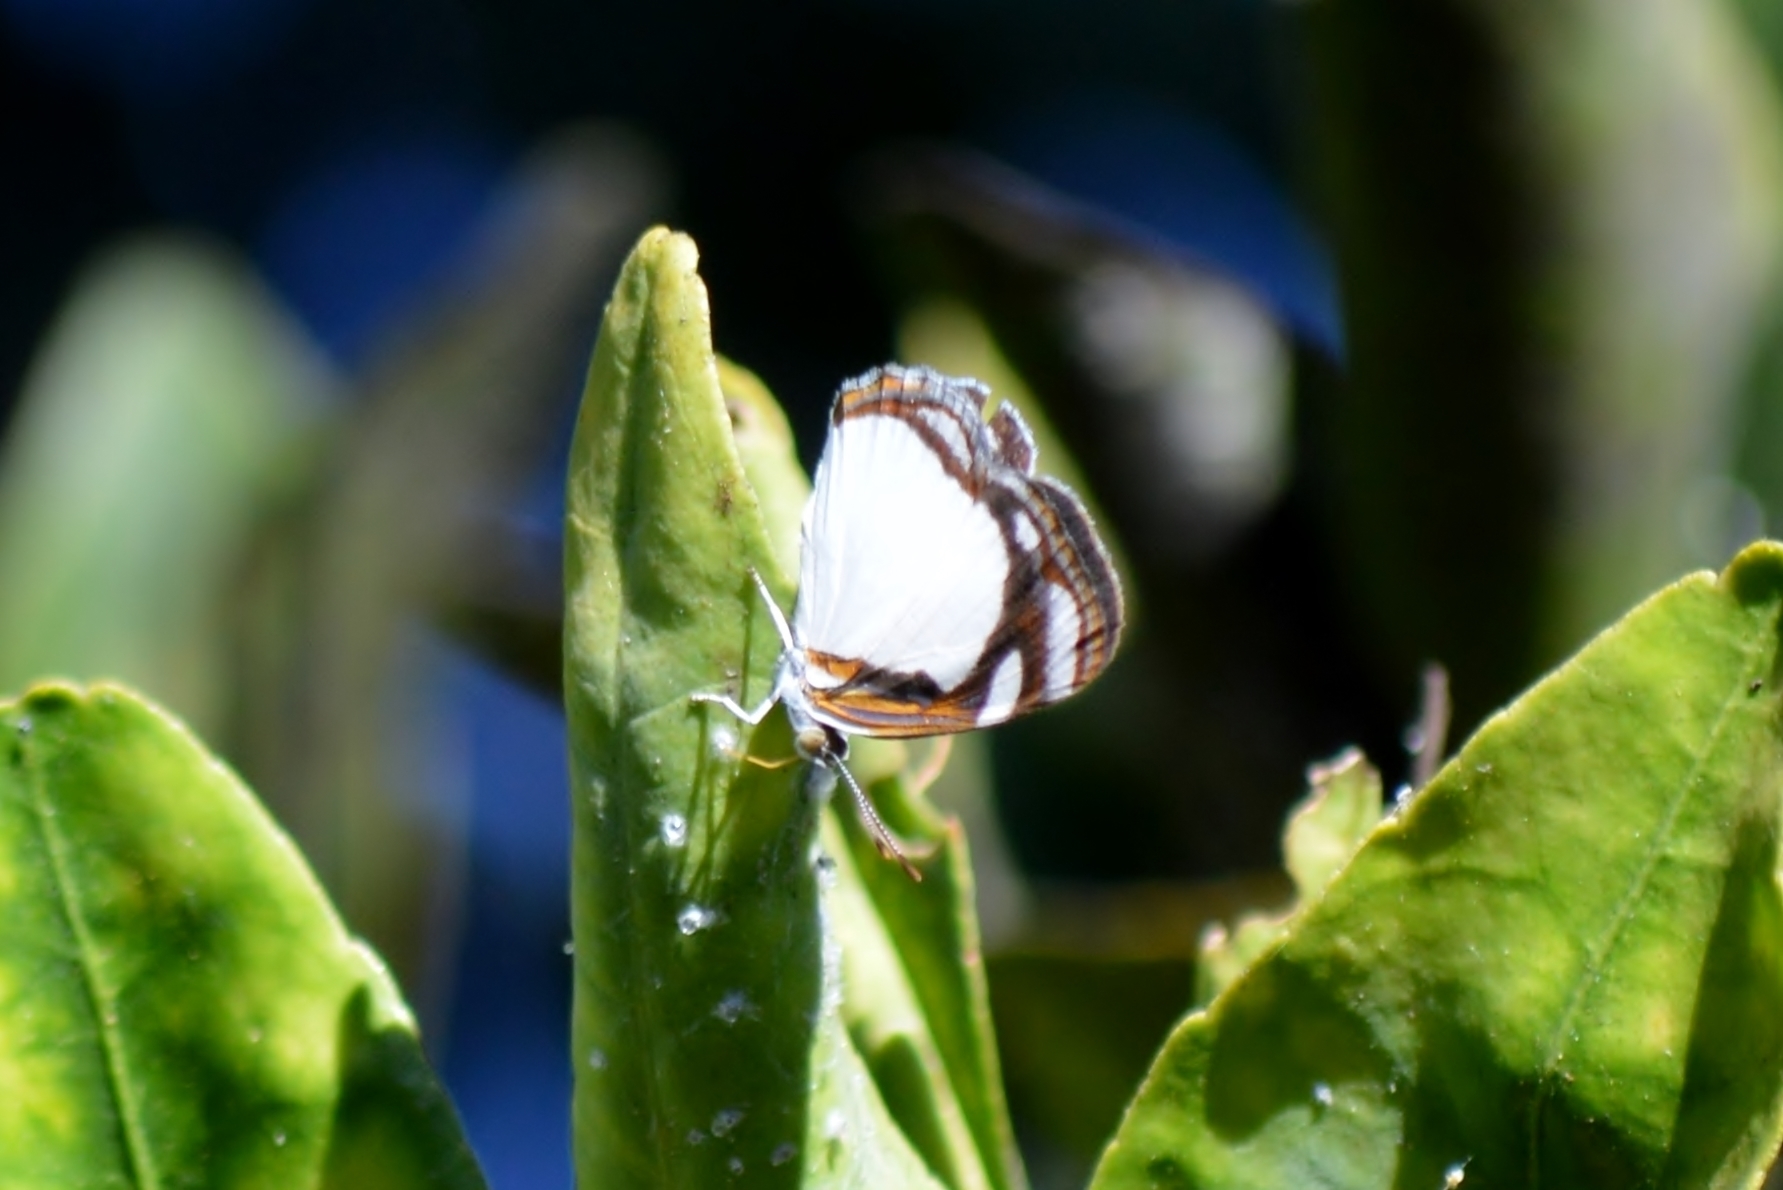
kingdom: Animalia
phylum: Arthropoda
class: Insecta
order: Lepidoptera
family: Nymphalidae
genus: Dynamine
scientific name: Dynamine agacles
